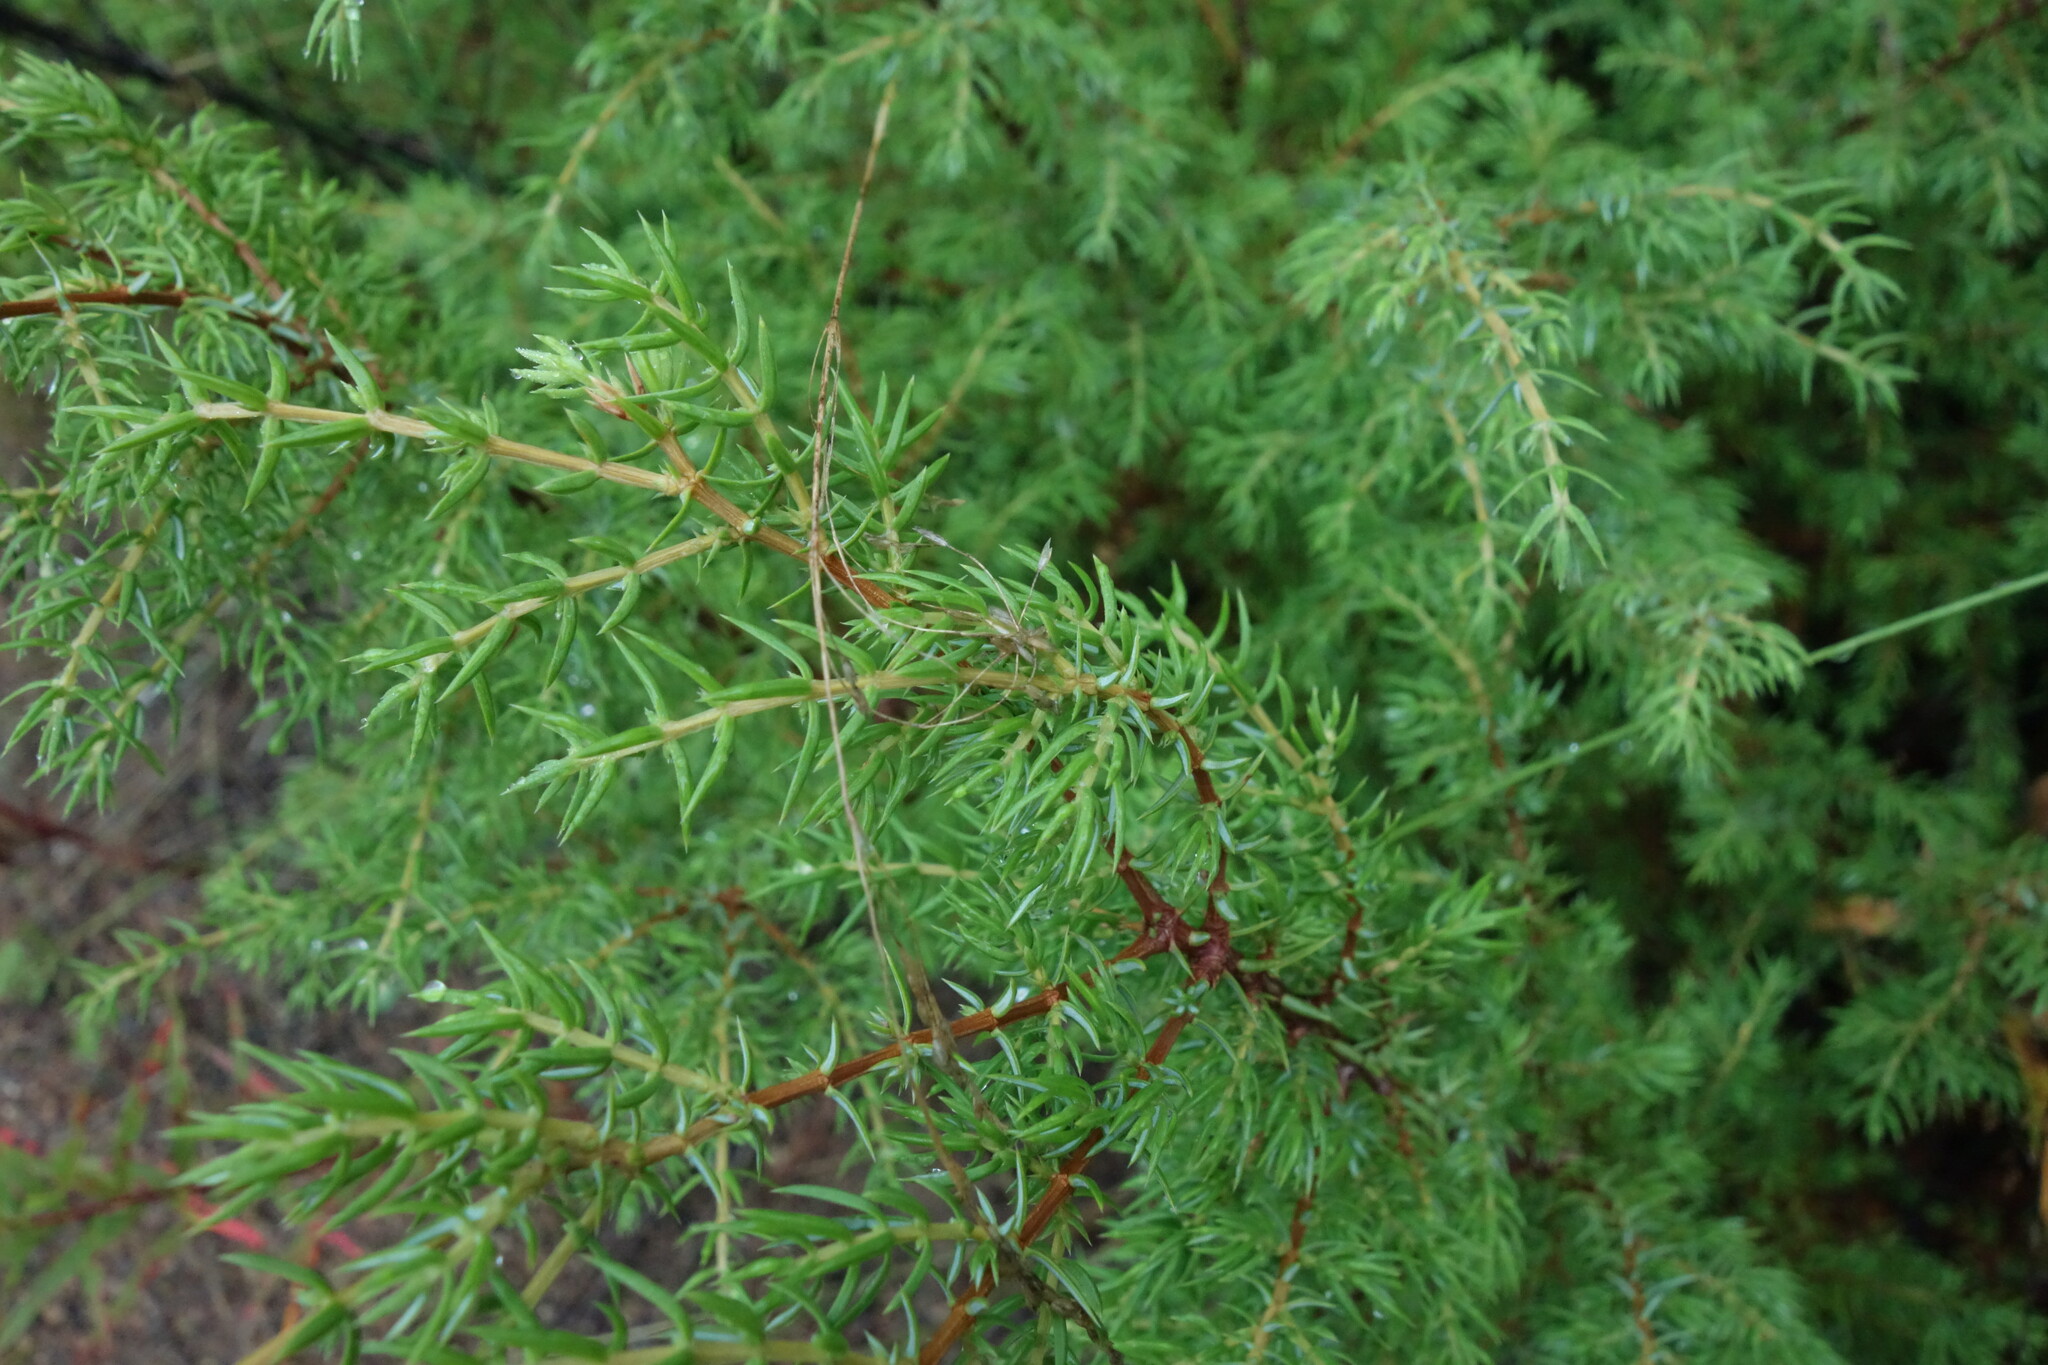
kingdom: Plantae
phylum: Tracheophyta
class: Pinopsida
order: Pinales
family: Cupressaceae
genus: Juniperus
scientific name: Juniperus communis
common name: Common juniper
